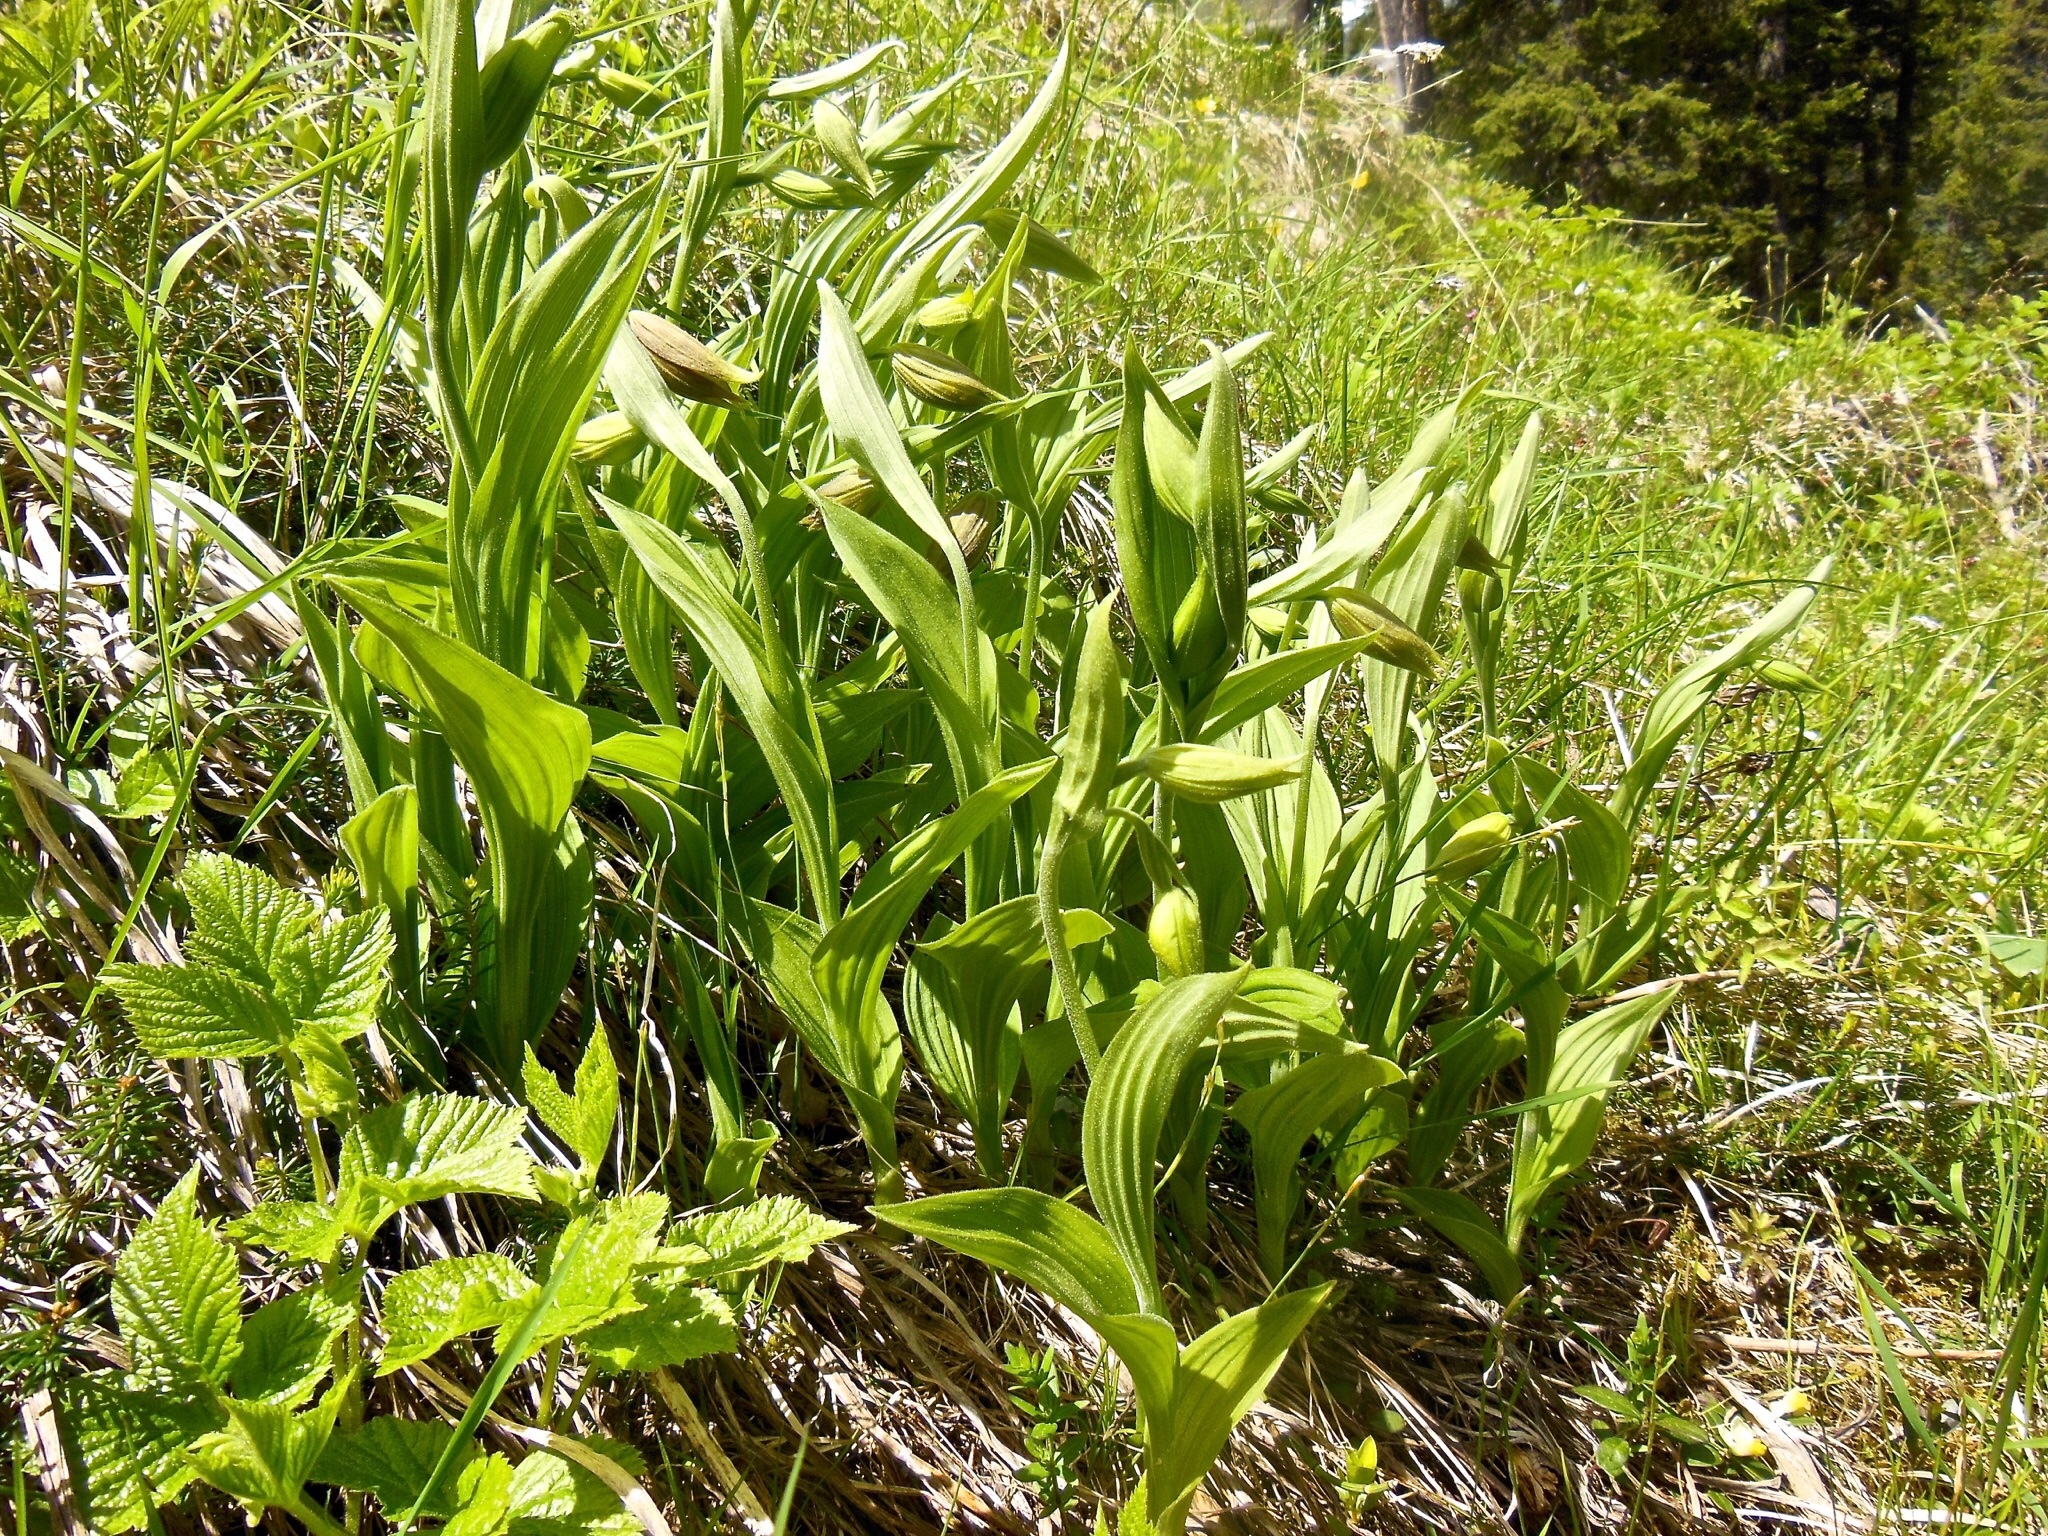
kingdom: Plantae
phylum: Tracheophyta
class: Liliopsida
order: Asparagales
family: Orchidaceae
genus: Cypripedium
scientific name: Cypripedium calceolus
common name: Lady's-slipper
